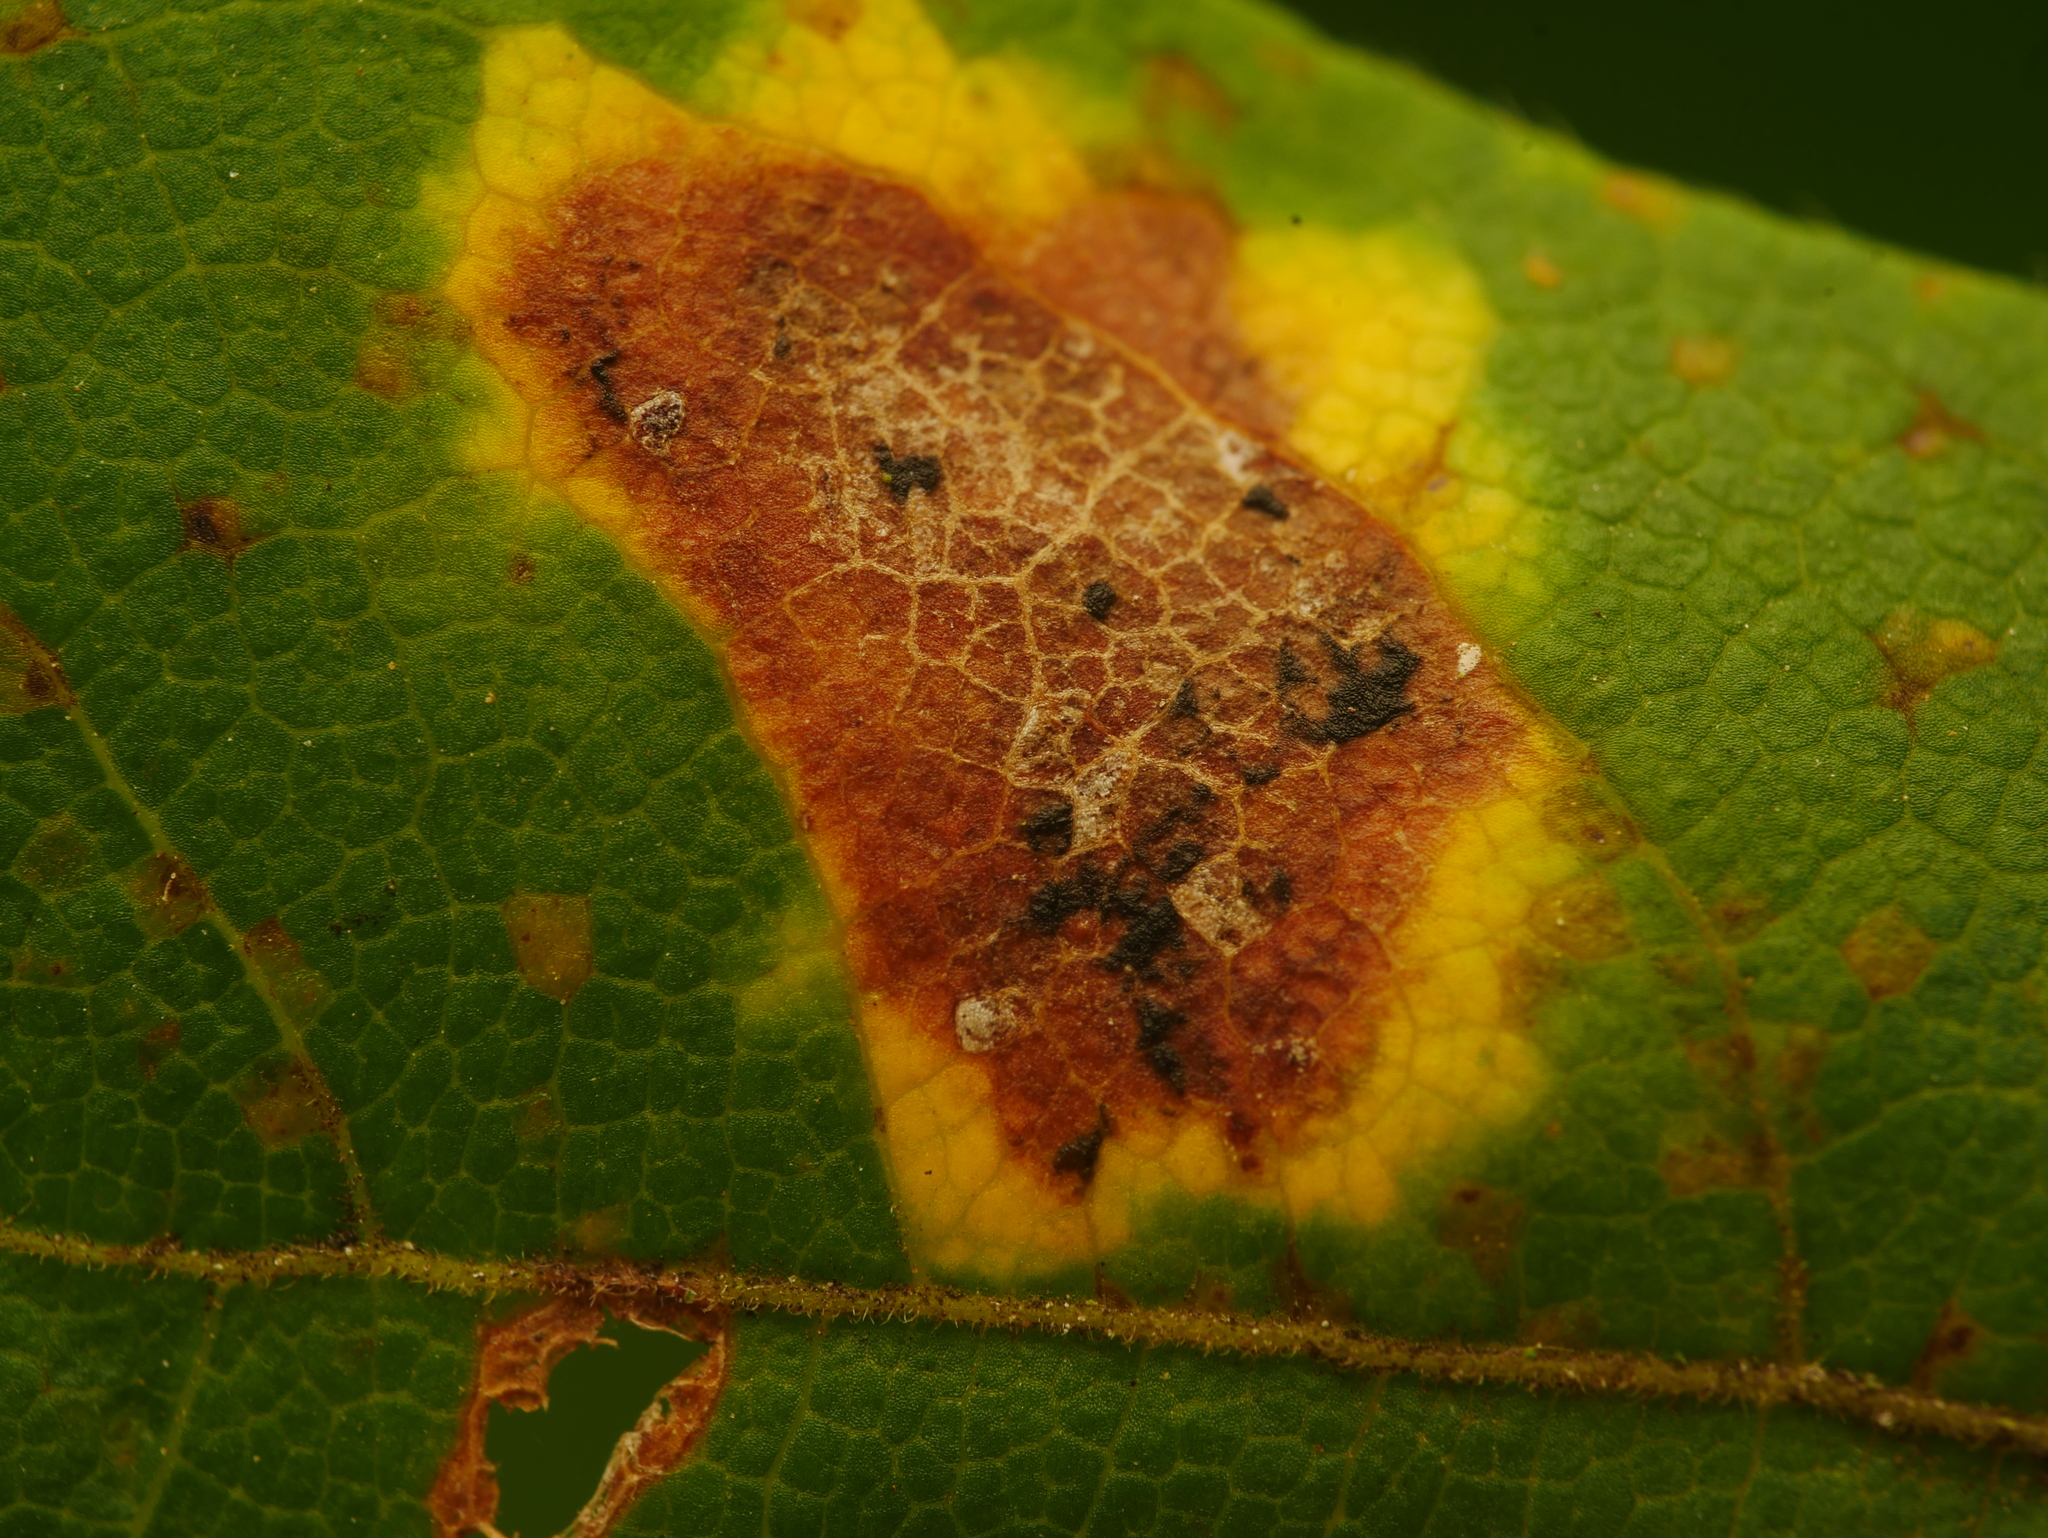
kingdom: Fungi
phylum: Ascomycota
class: Leotiomycetes
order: Rhytismatales
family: Rhytismataceae
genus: Rhytisma
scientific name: Rhytisma acerinum
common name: European tar spot
